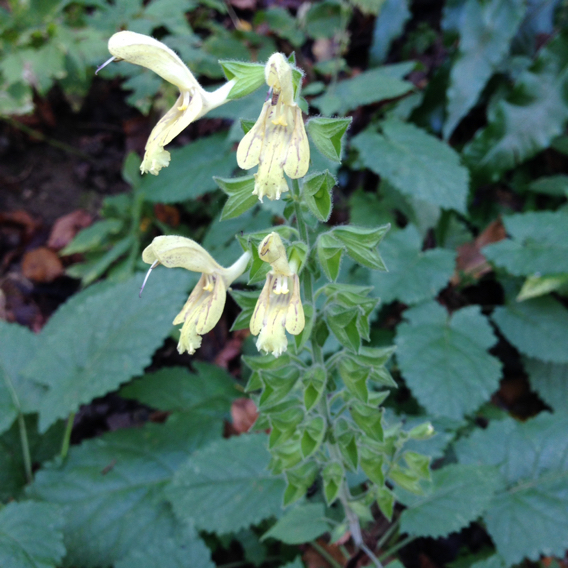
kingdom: Plantae
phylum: Tracheophyta
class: Magnoliopsida
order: Lamiales
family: Lamiaceae
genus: Salvia
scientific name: Salvia glutinosa
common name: Sticky clary
